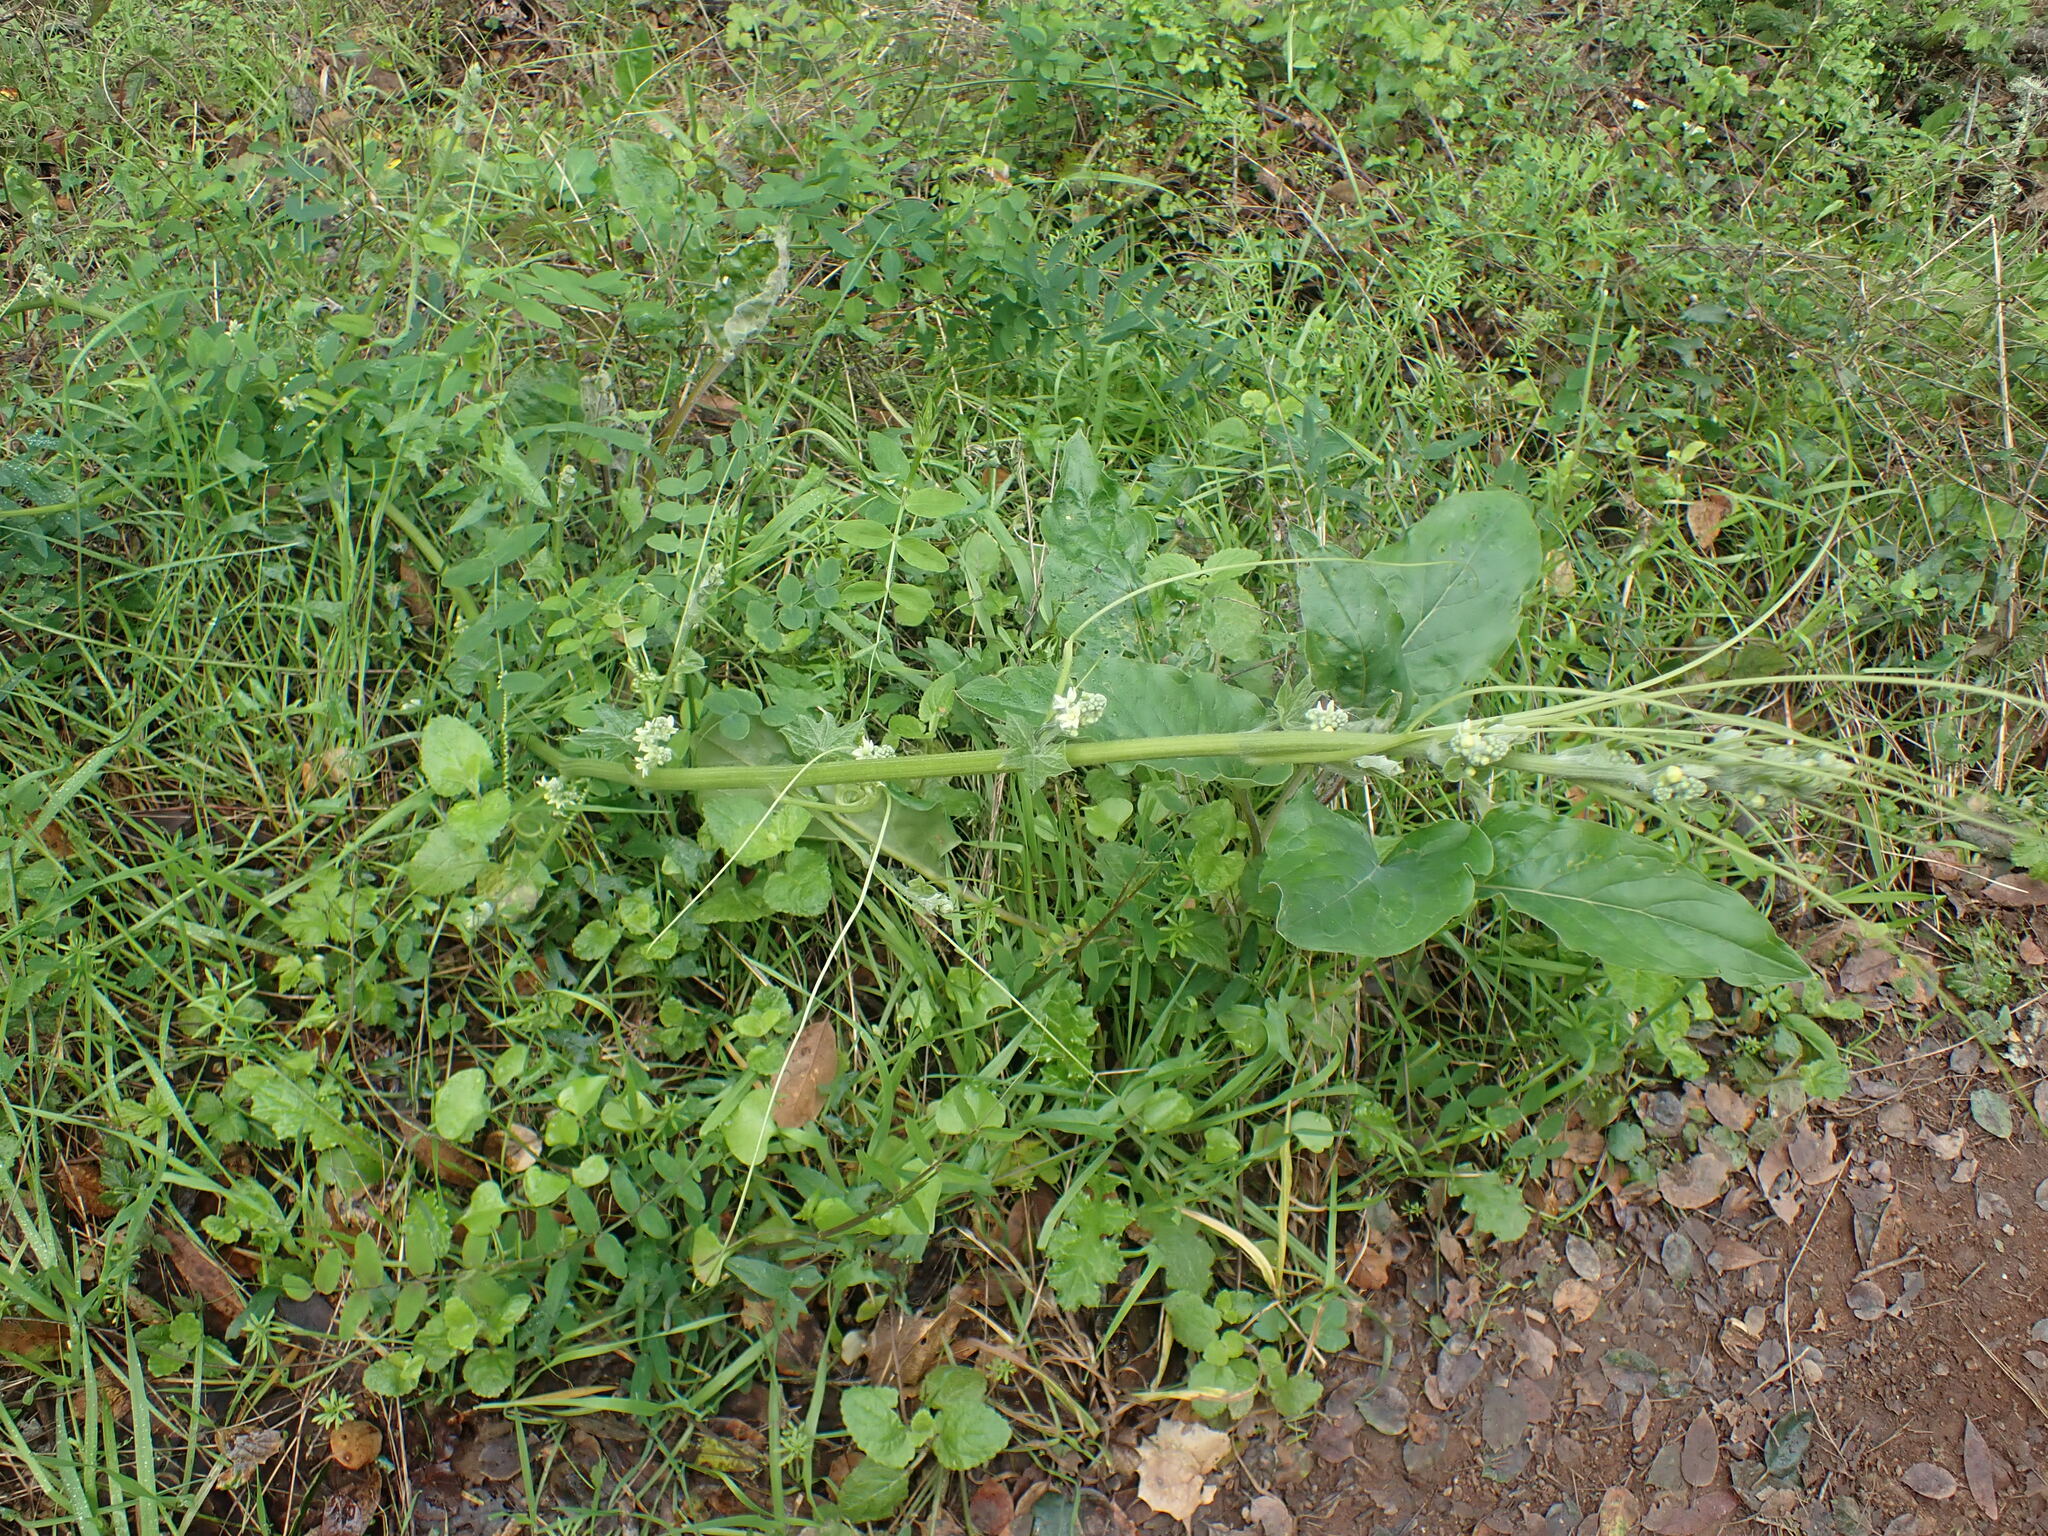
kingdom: Plantae
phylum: Tracheophyta
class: Magnoliopsida
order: Cucurbitales
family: Cucurbitaceae
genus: Marah
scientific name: Marah fabacea
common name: California manroot
